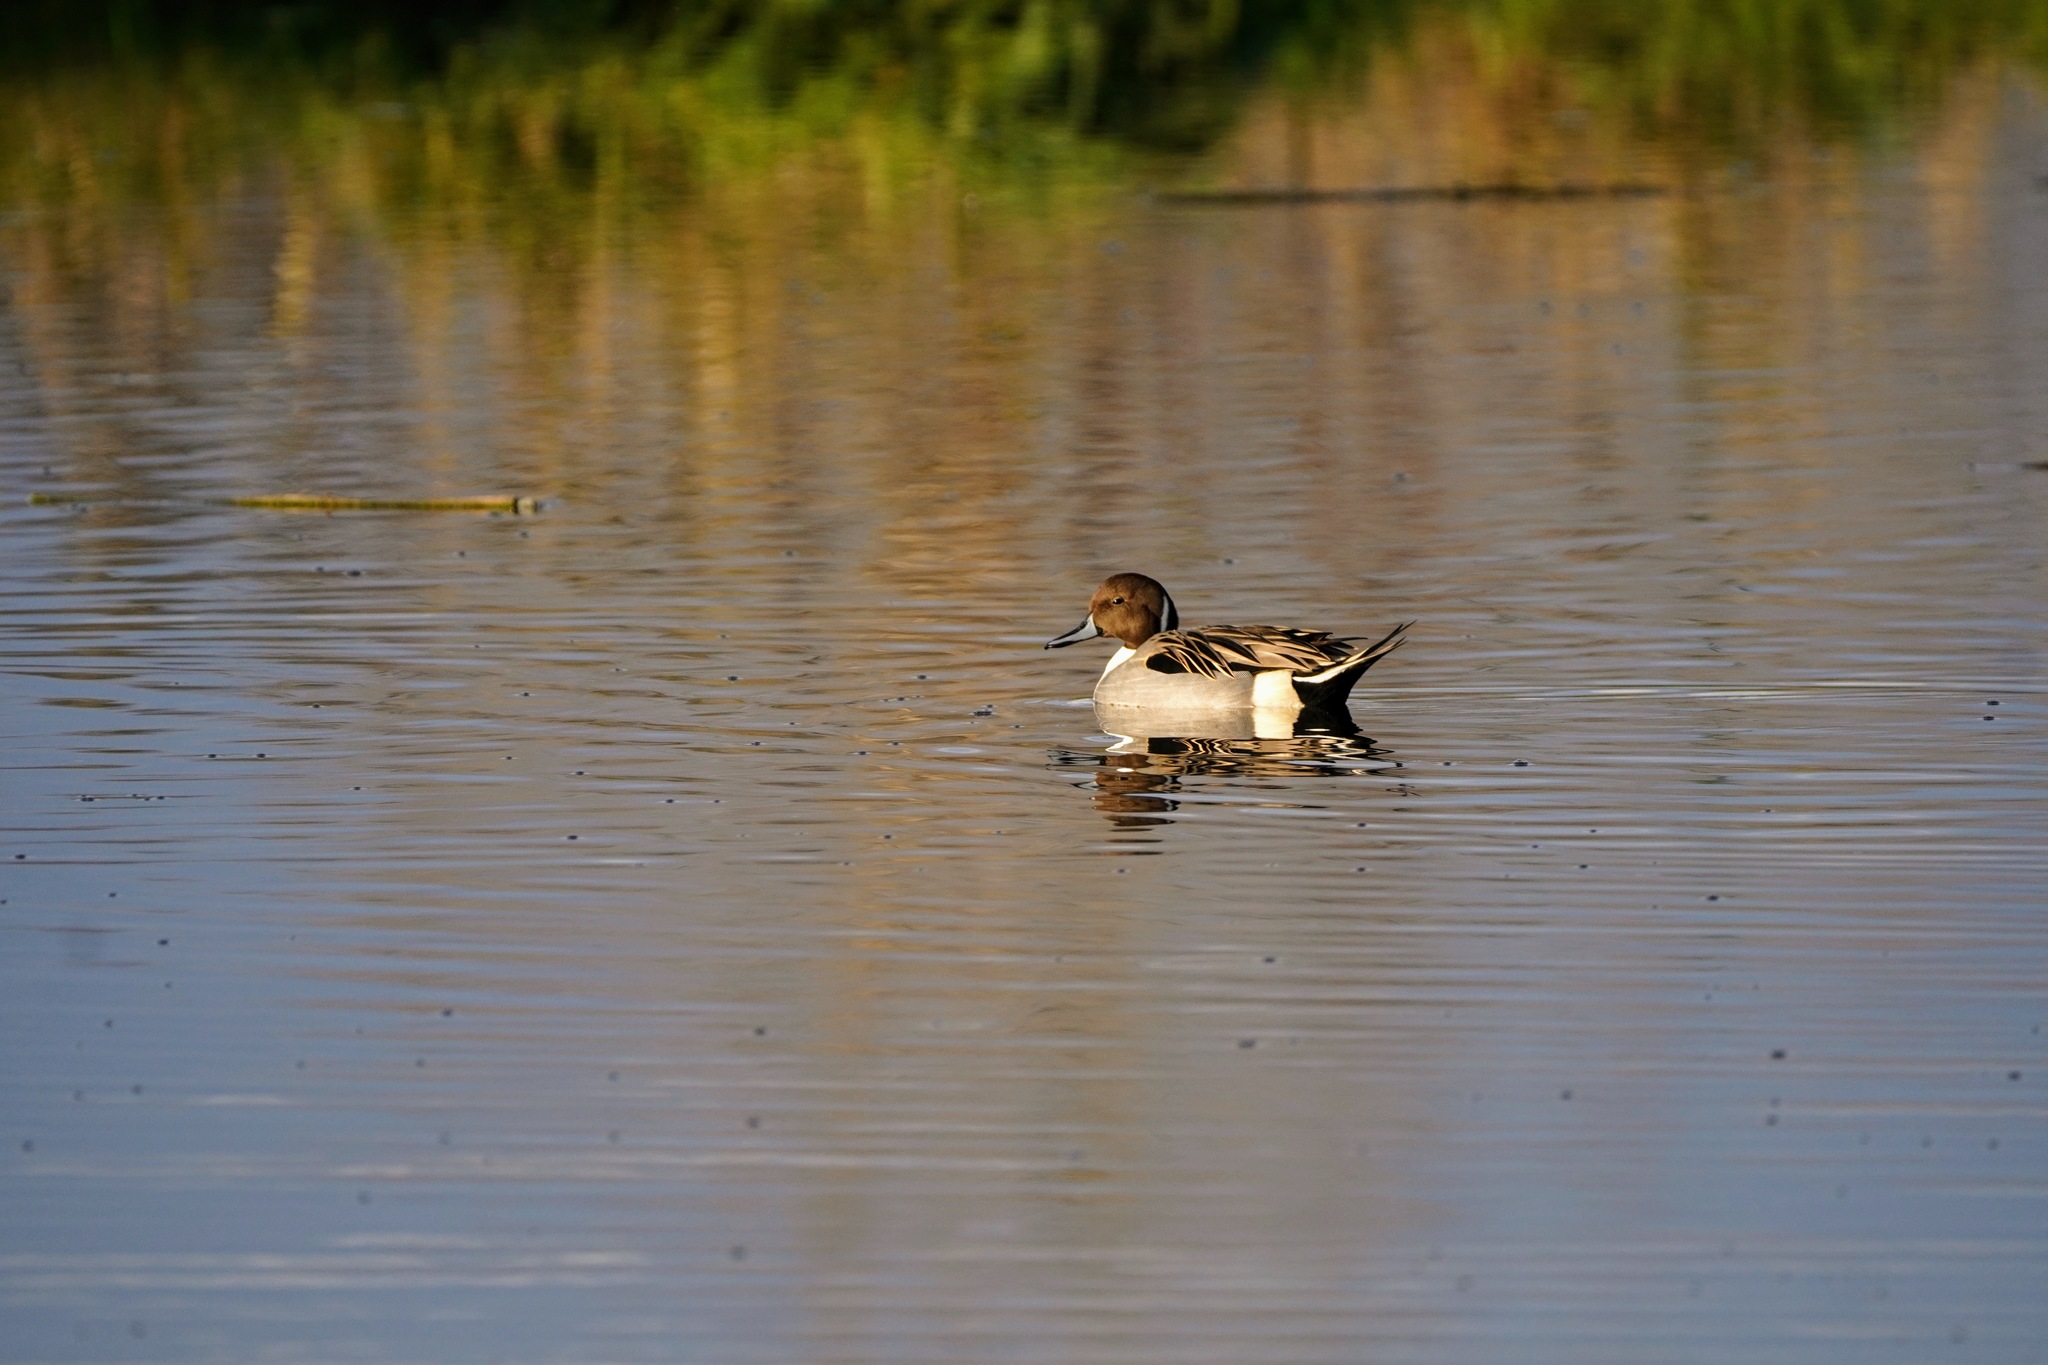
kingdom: Animalia
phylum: Chordata
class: Aves
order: Anseriformes
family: Anatidae
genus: Anas
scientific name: Anas acuta
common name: Northern pintail
